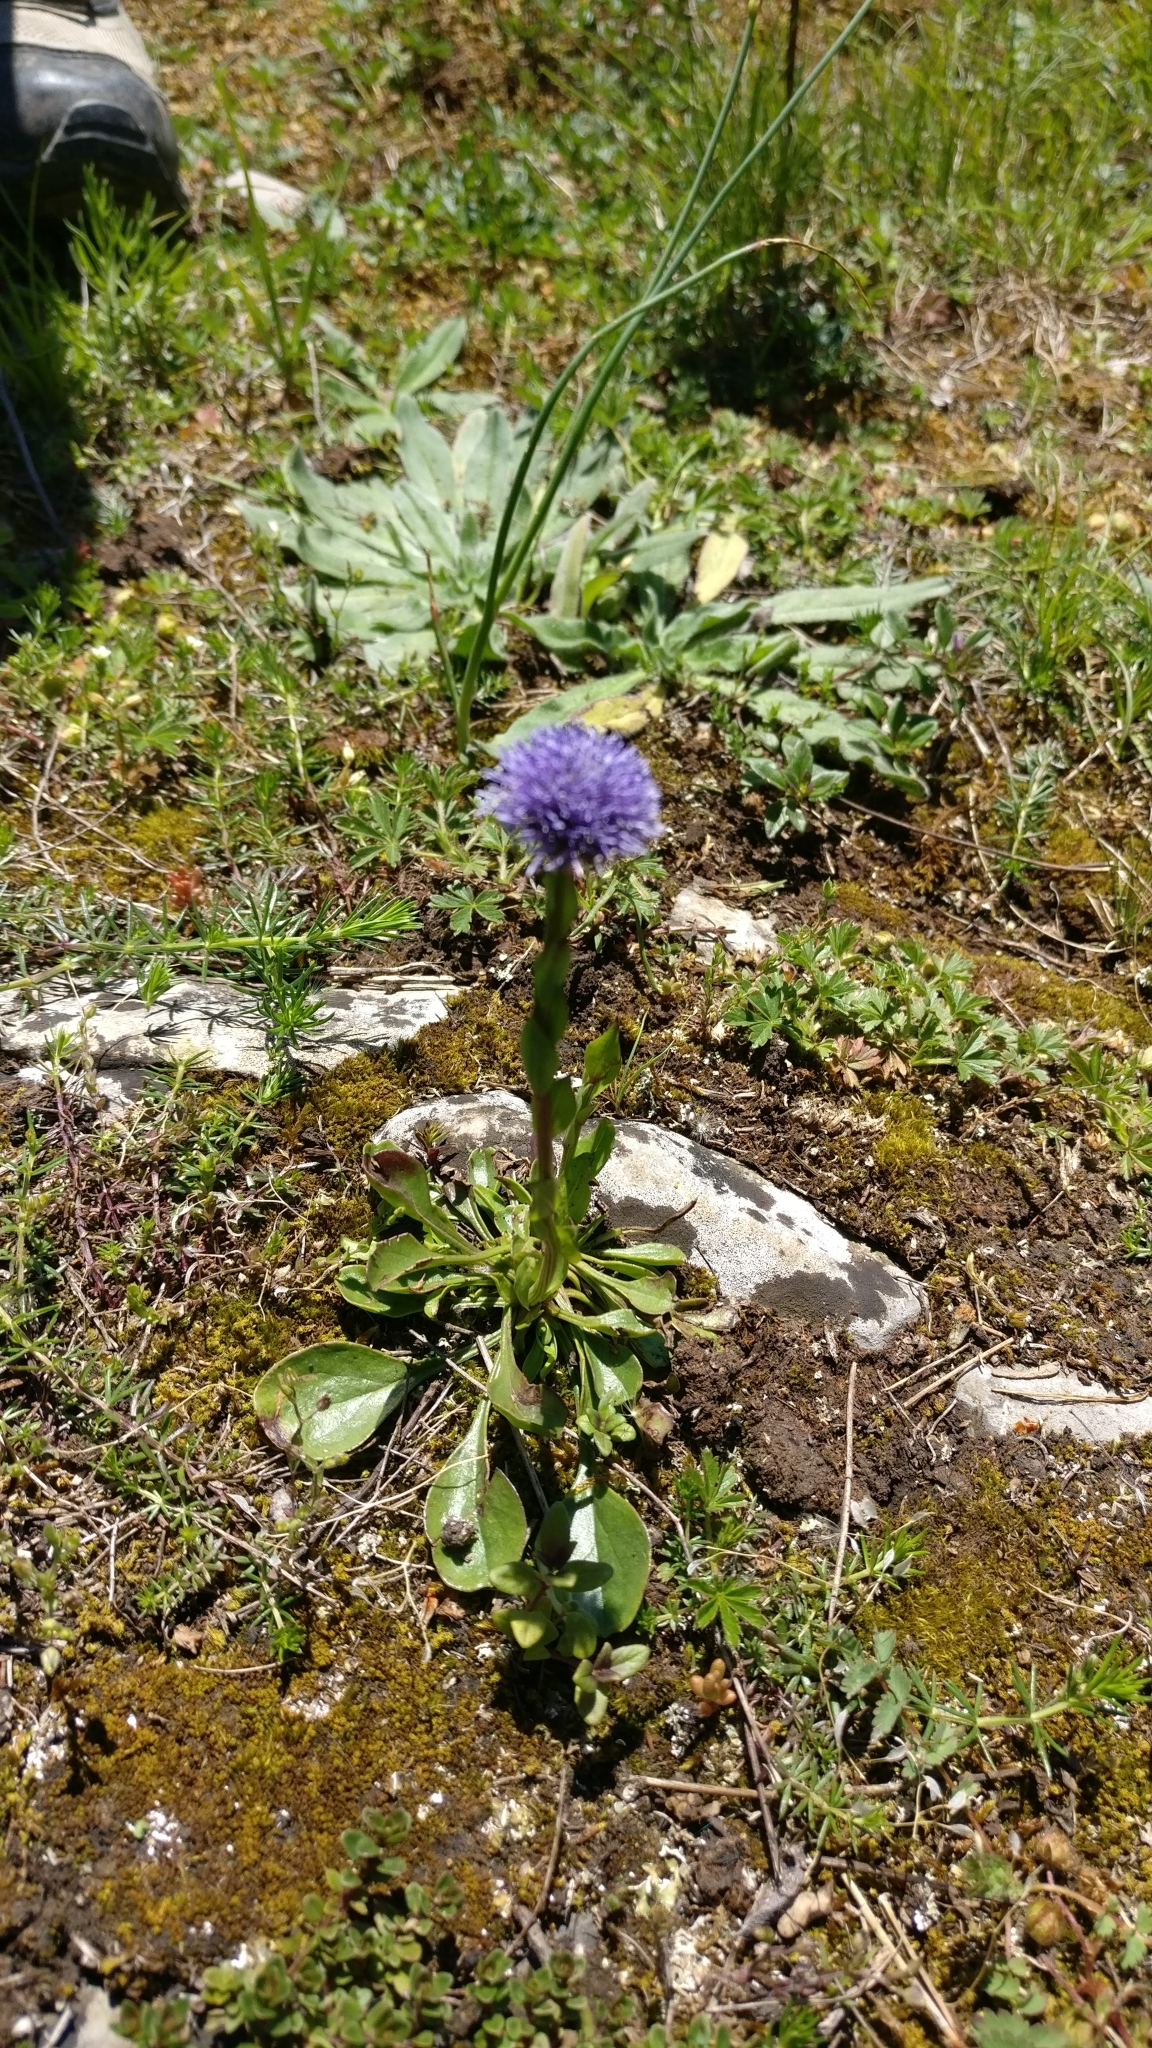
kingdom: Plantae
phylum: Tracheophyta
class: Magnoliopsida
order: Lamiales
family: Plantaginaceae
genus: Globularia
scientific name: Globularia bisnagarica
